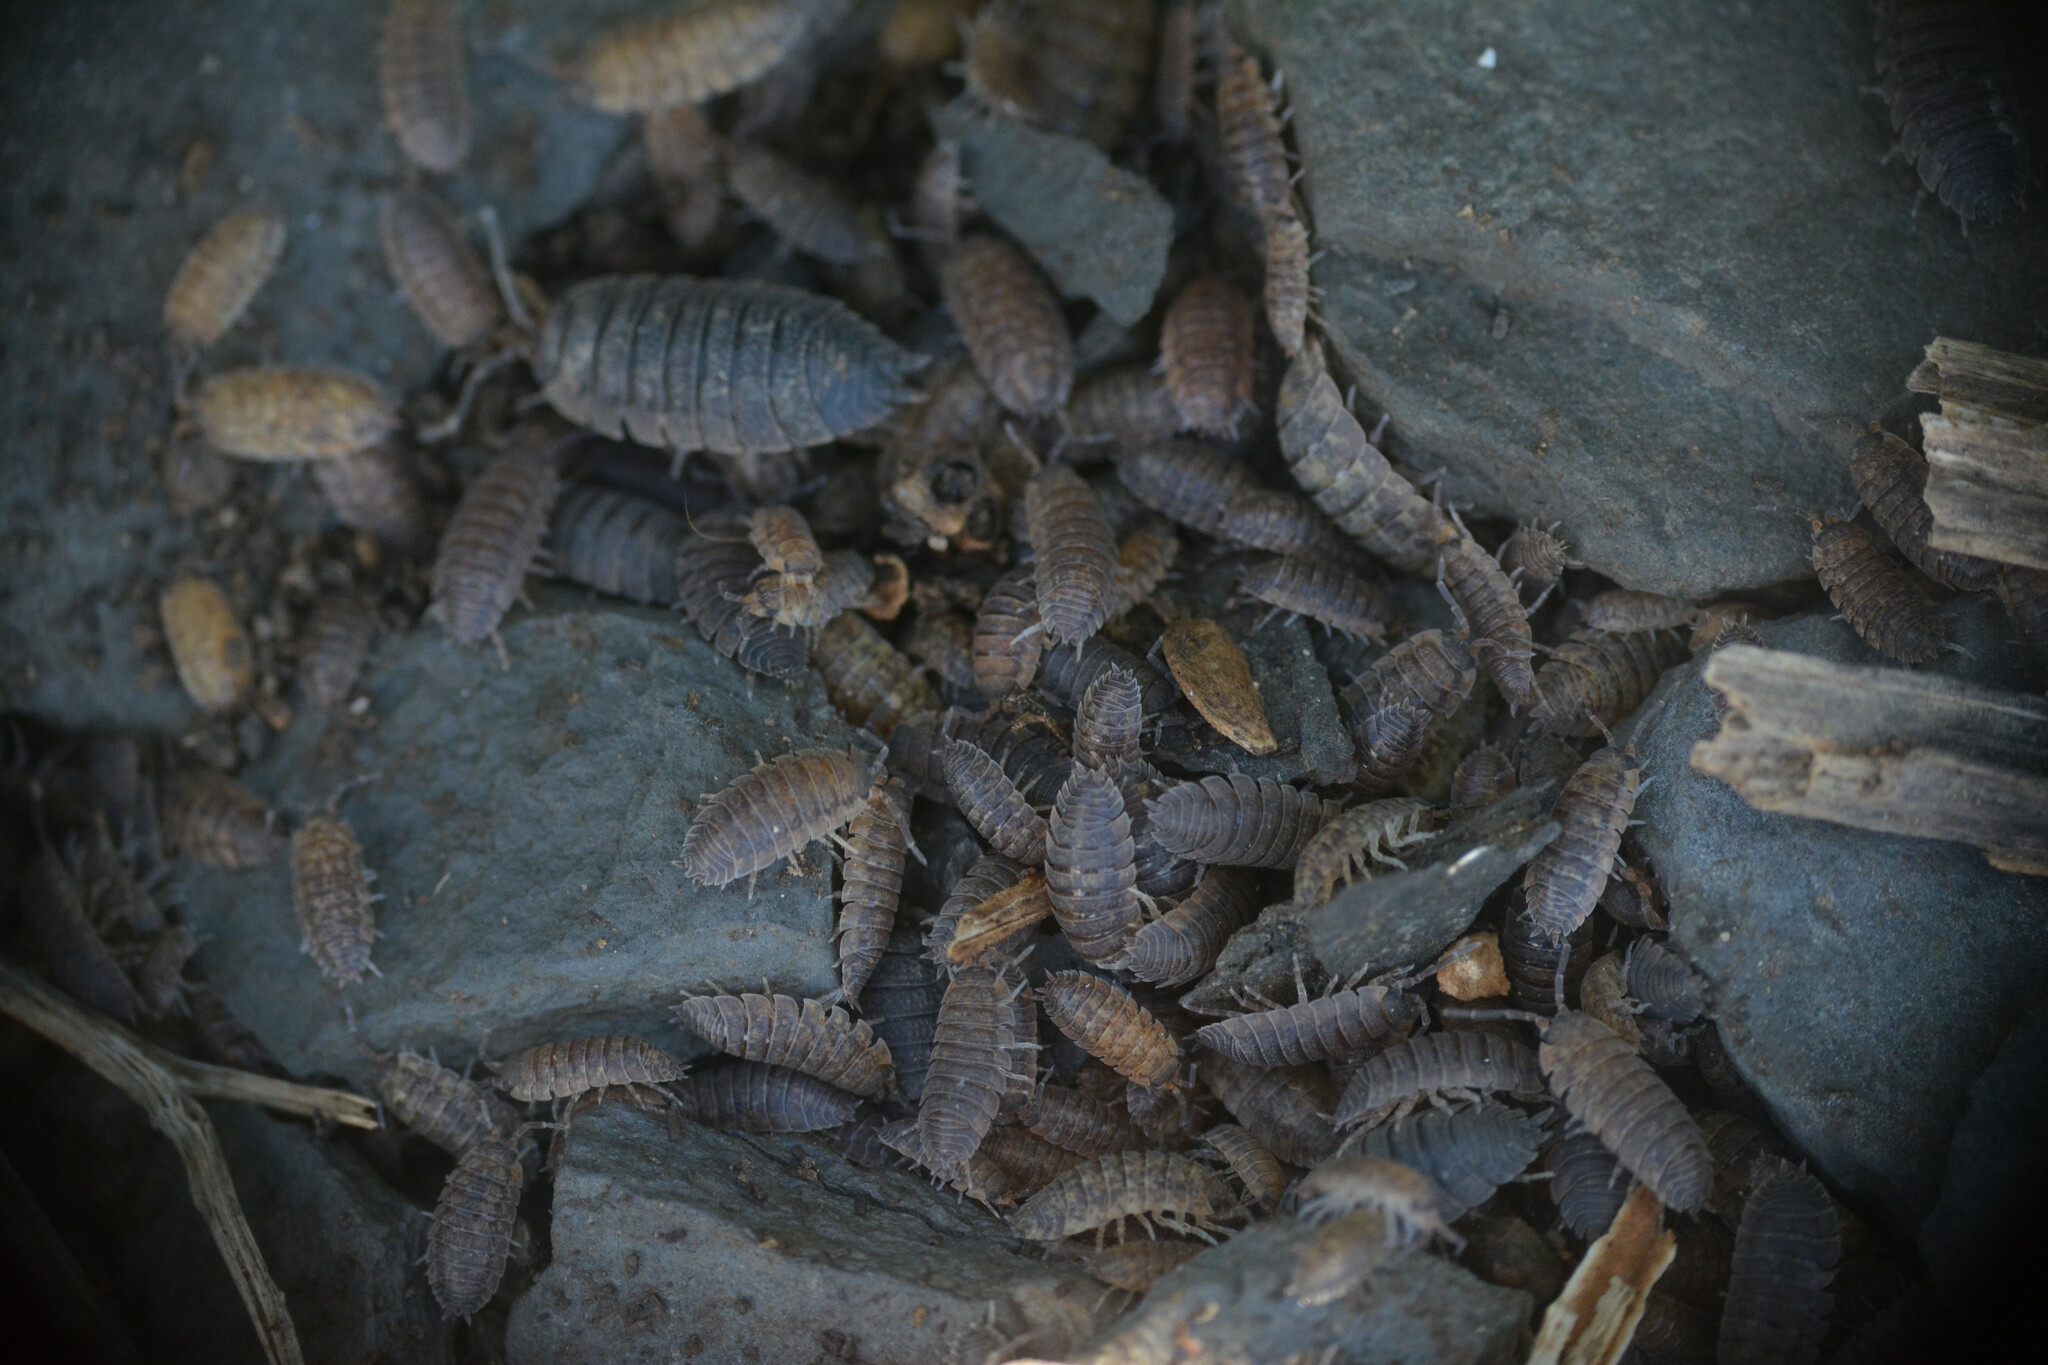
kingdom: Animalia
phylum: Arthropoda
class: Malacostraca
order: Isopoda
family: Porcellionidae
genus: Porcellio
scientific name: Porcellio scaber
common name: Common rough woodlouse
